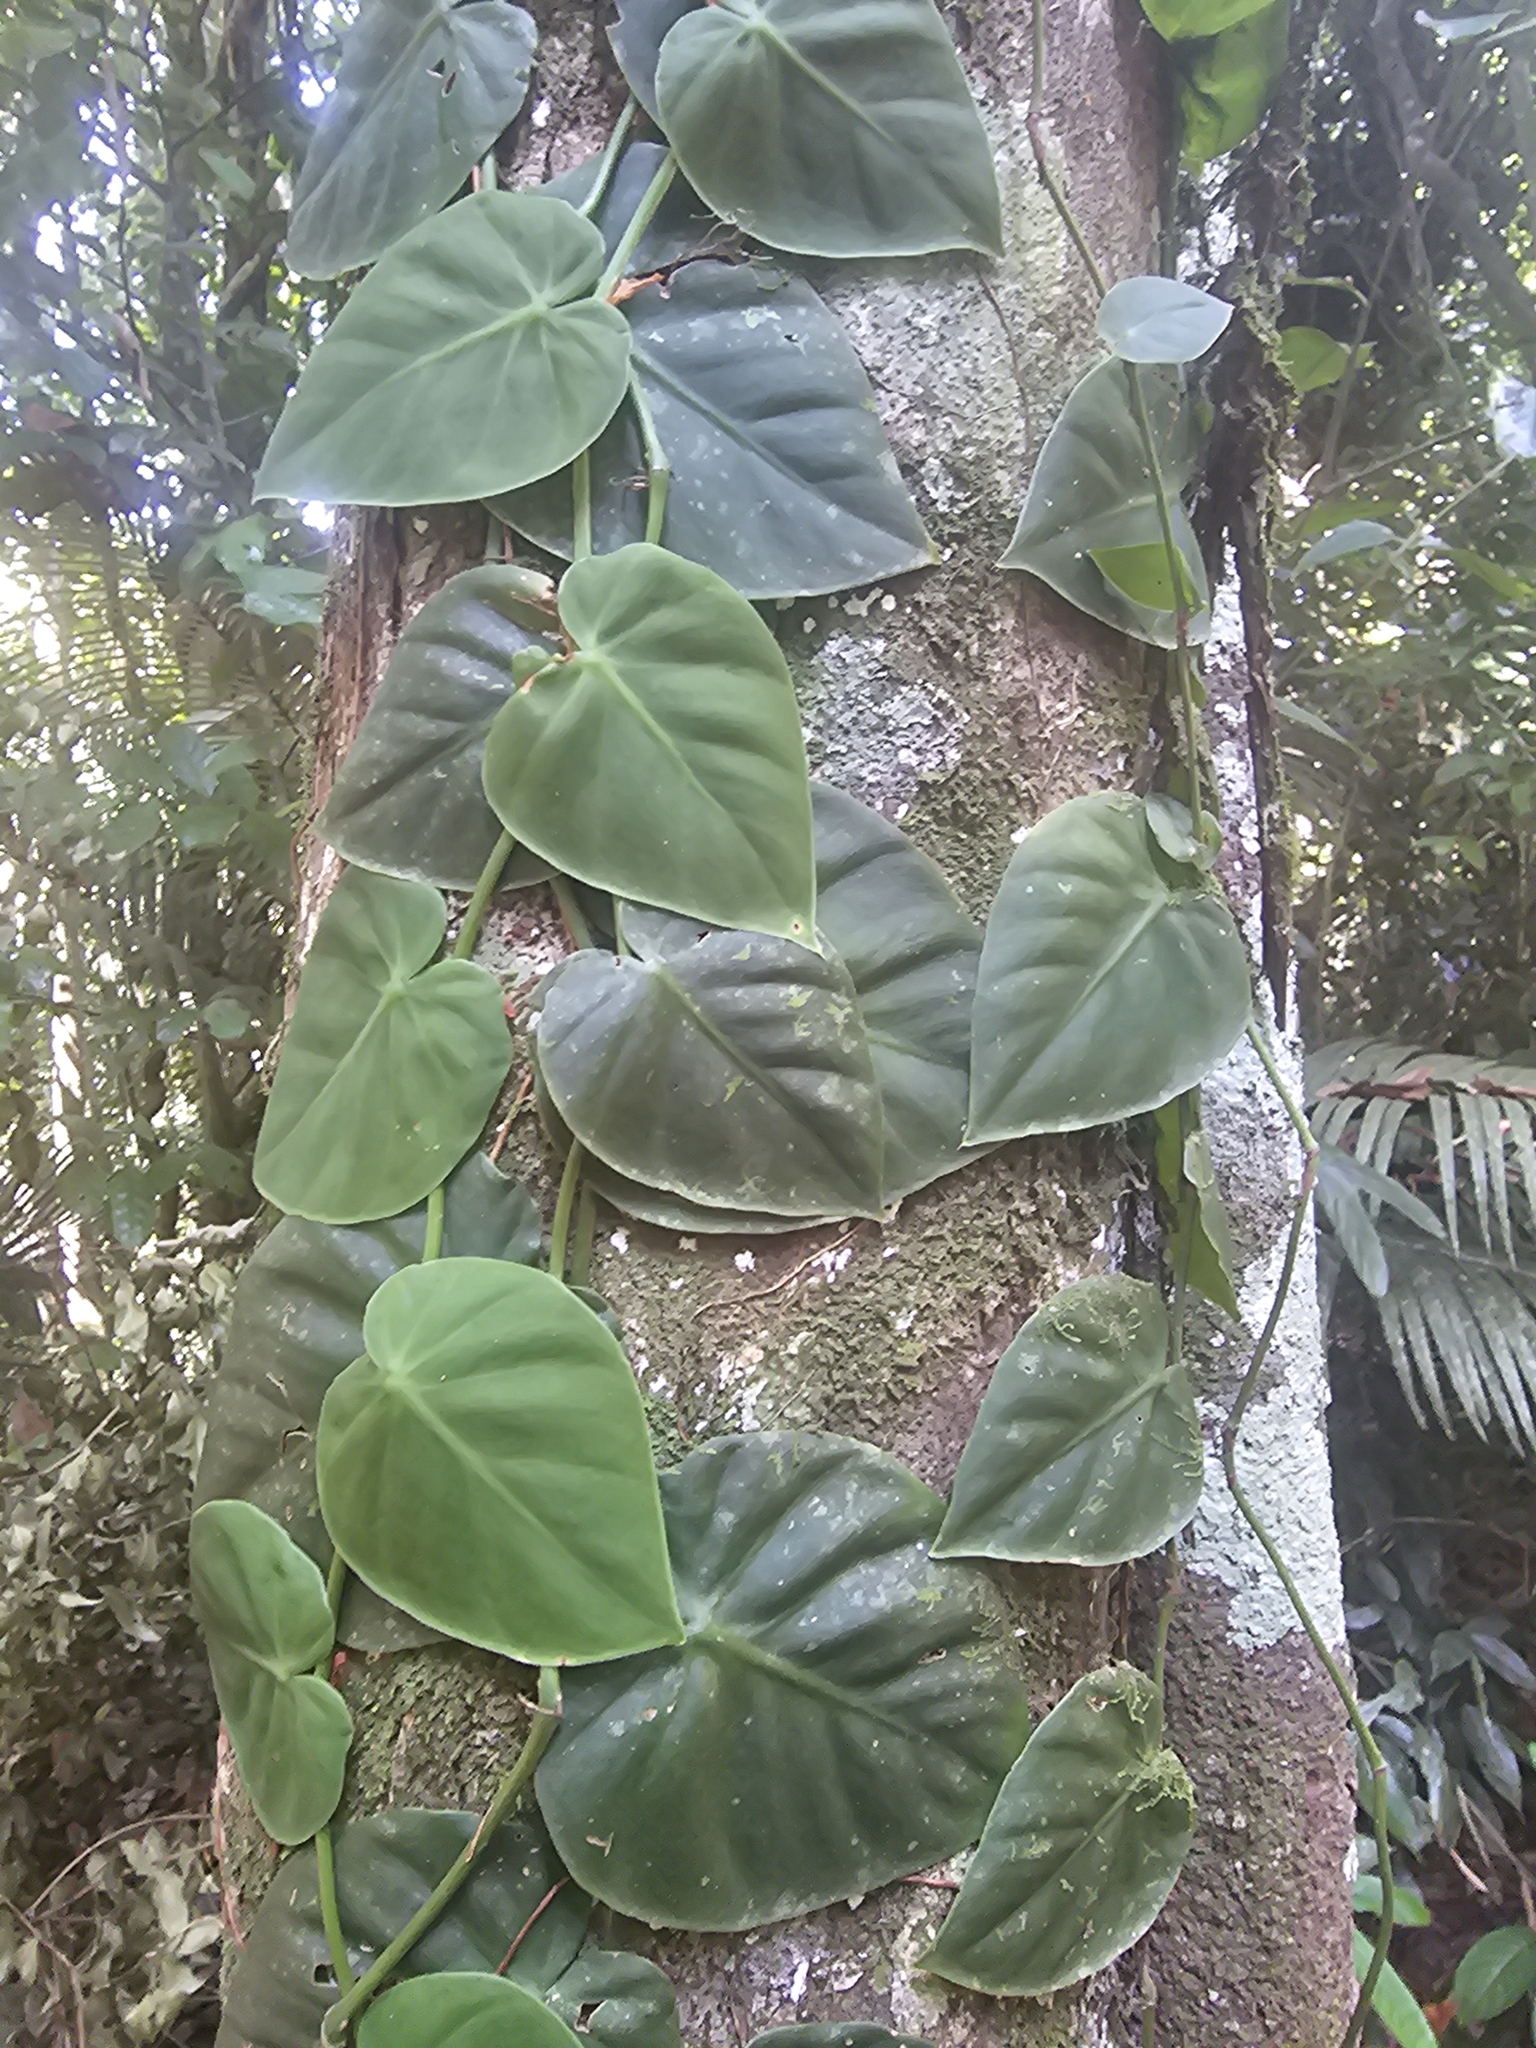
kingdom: Plantae
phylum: Tracheophyta
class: Liliopsida
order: Alismatales
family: Araceae
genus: Philodendron
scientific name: Philodendron hederaceum
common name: Vilevine
